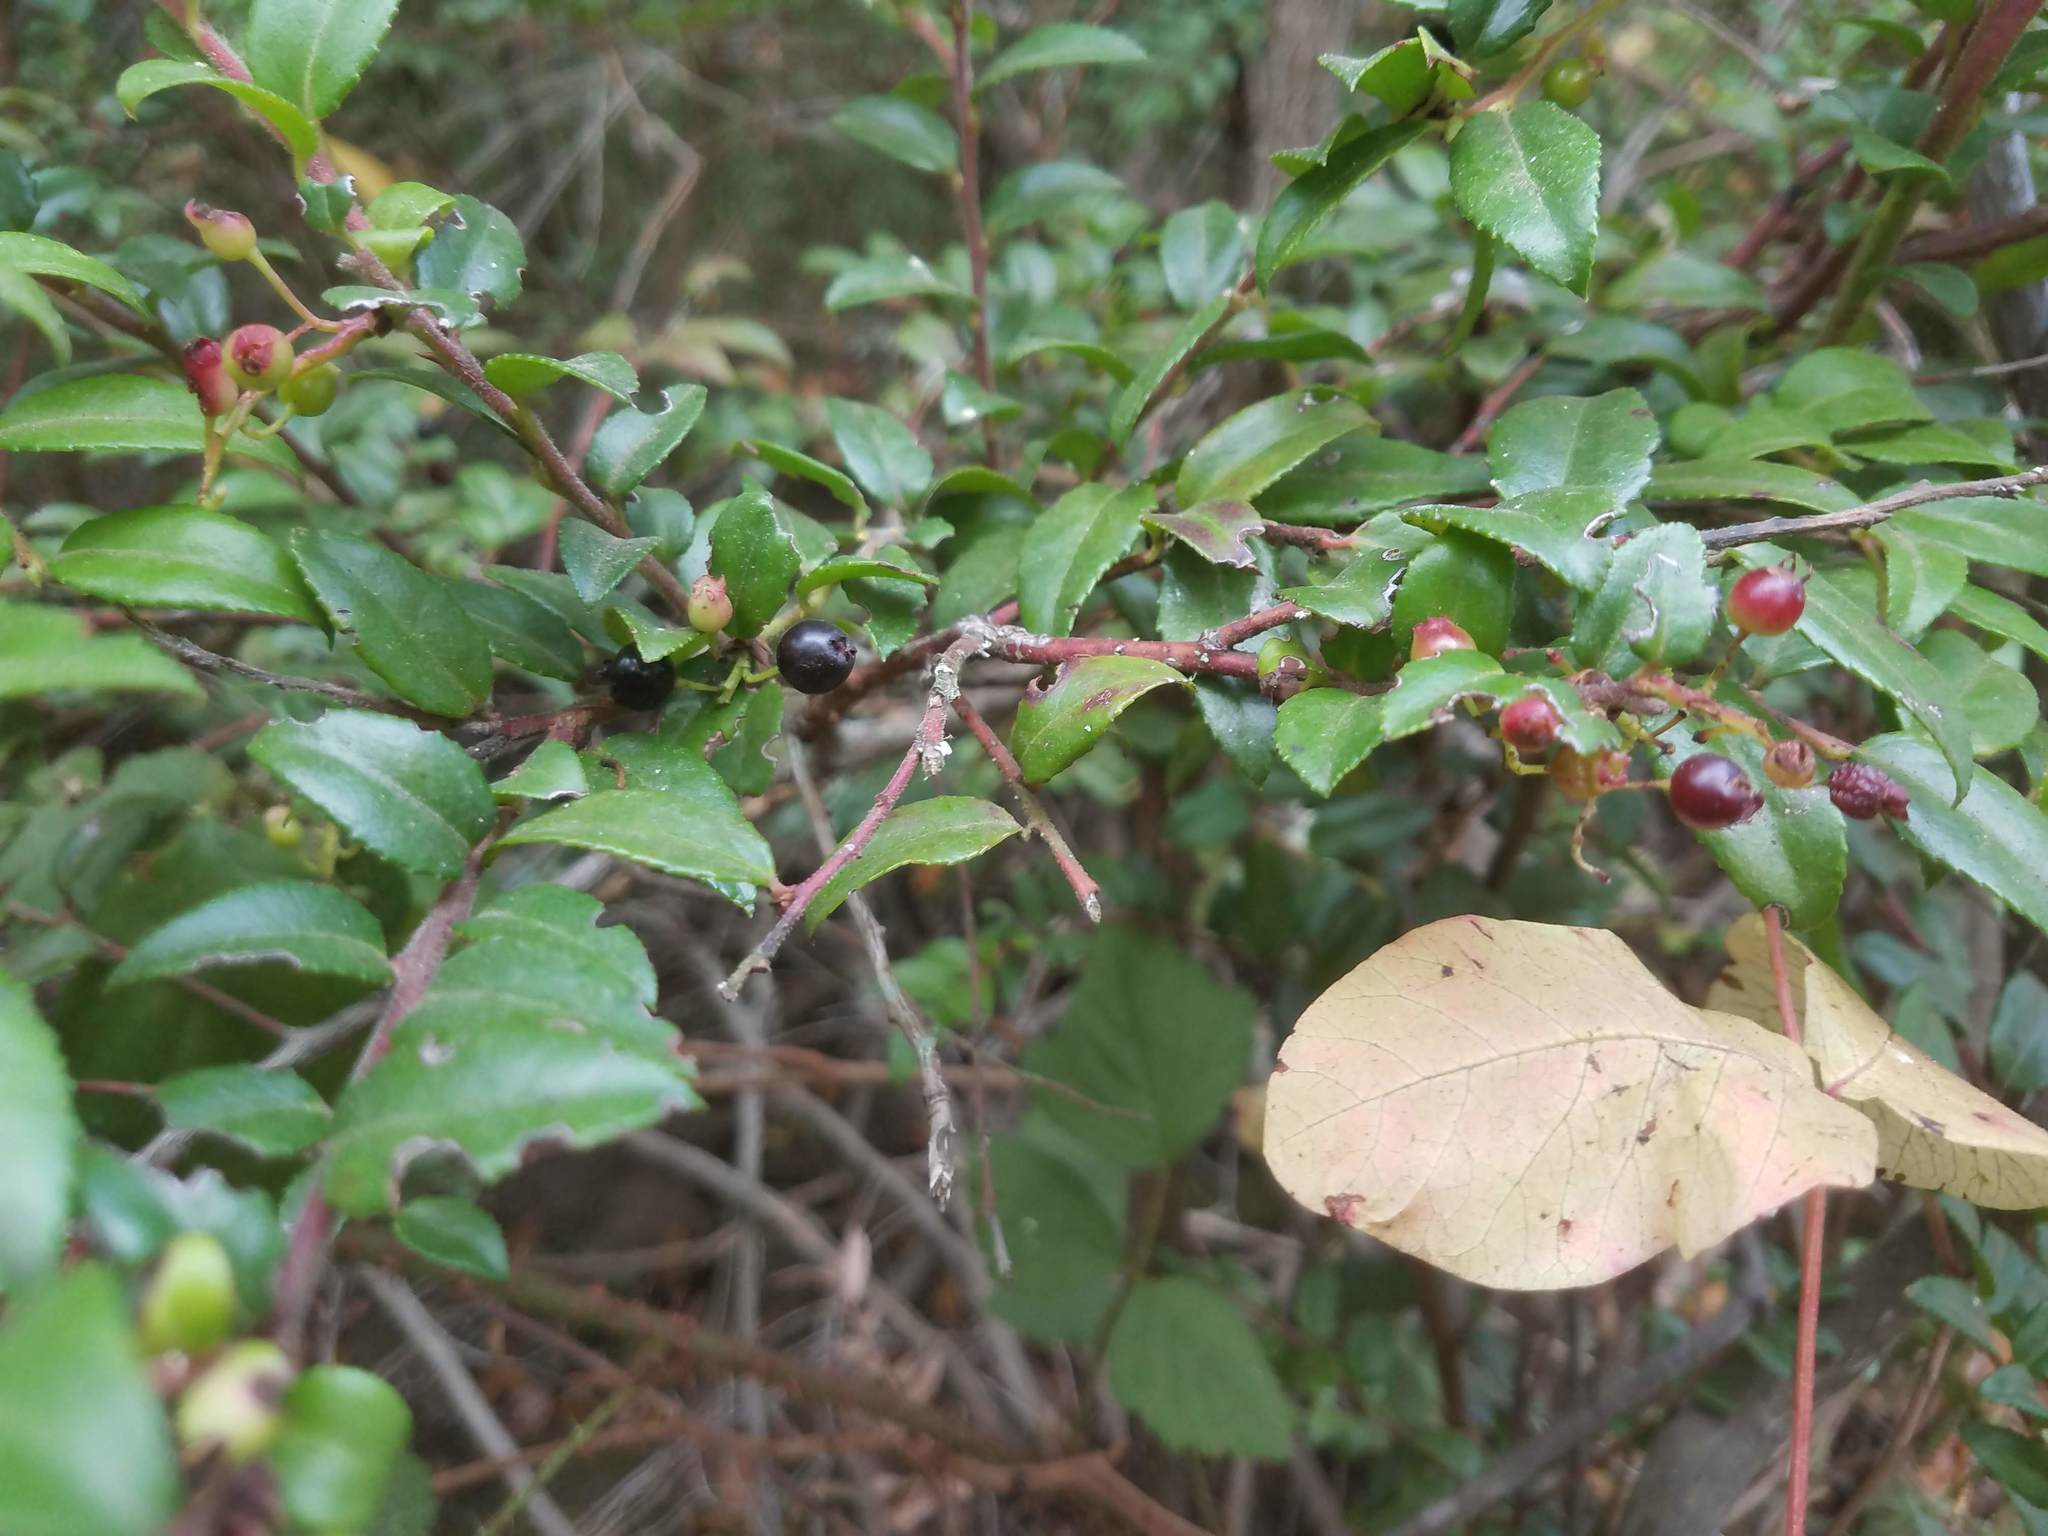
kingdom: Plantae
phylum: Tracheophyta
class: Magnoliopsida
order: Ericales
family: Ericaceae
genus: Vaccinium
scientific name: Vaccinium ovatum
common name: California-huckleberry
